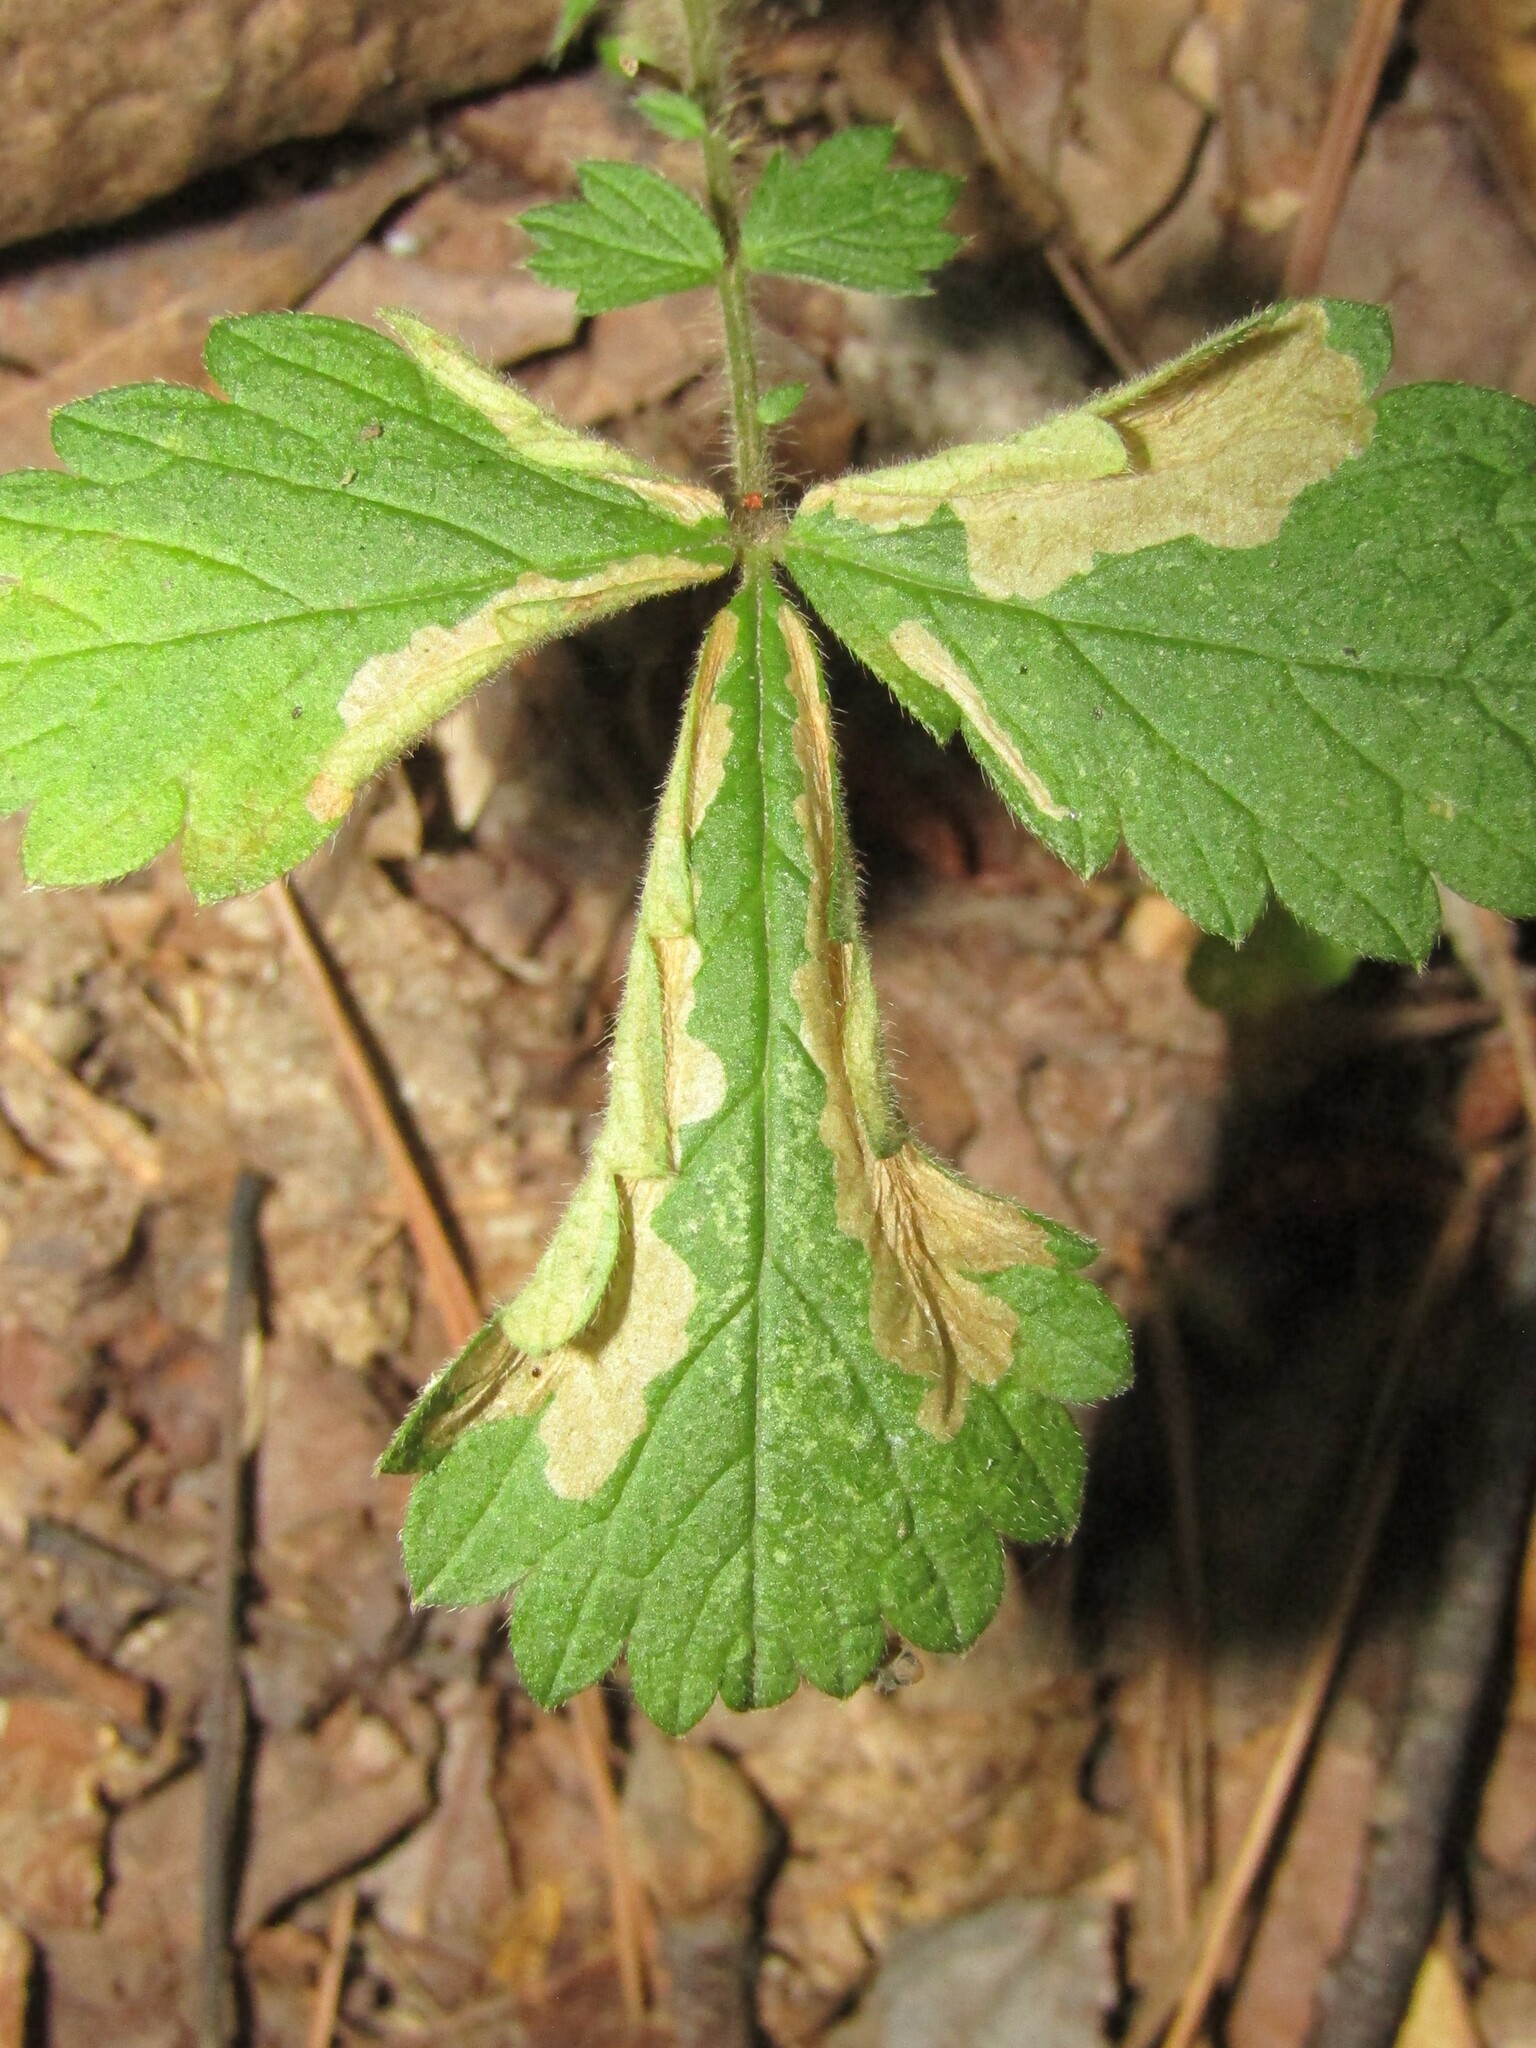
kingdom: Animalia
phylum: Arthropoda
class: Insecta
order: Lepidoptera
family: Tischeriidae
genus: Coptotriche
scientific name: Coptotriche agrimoniella
